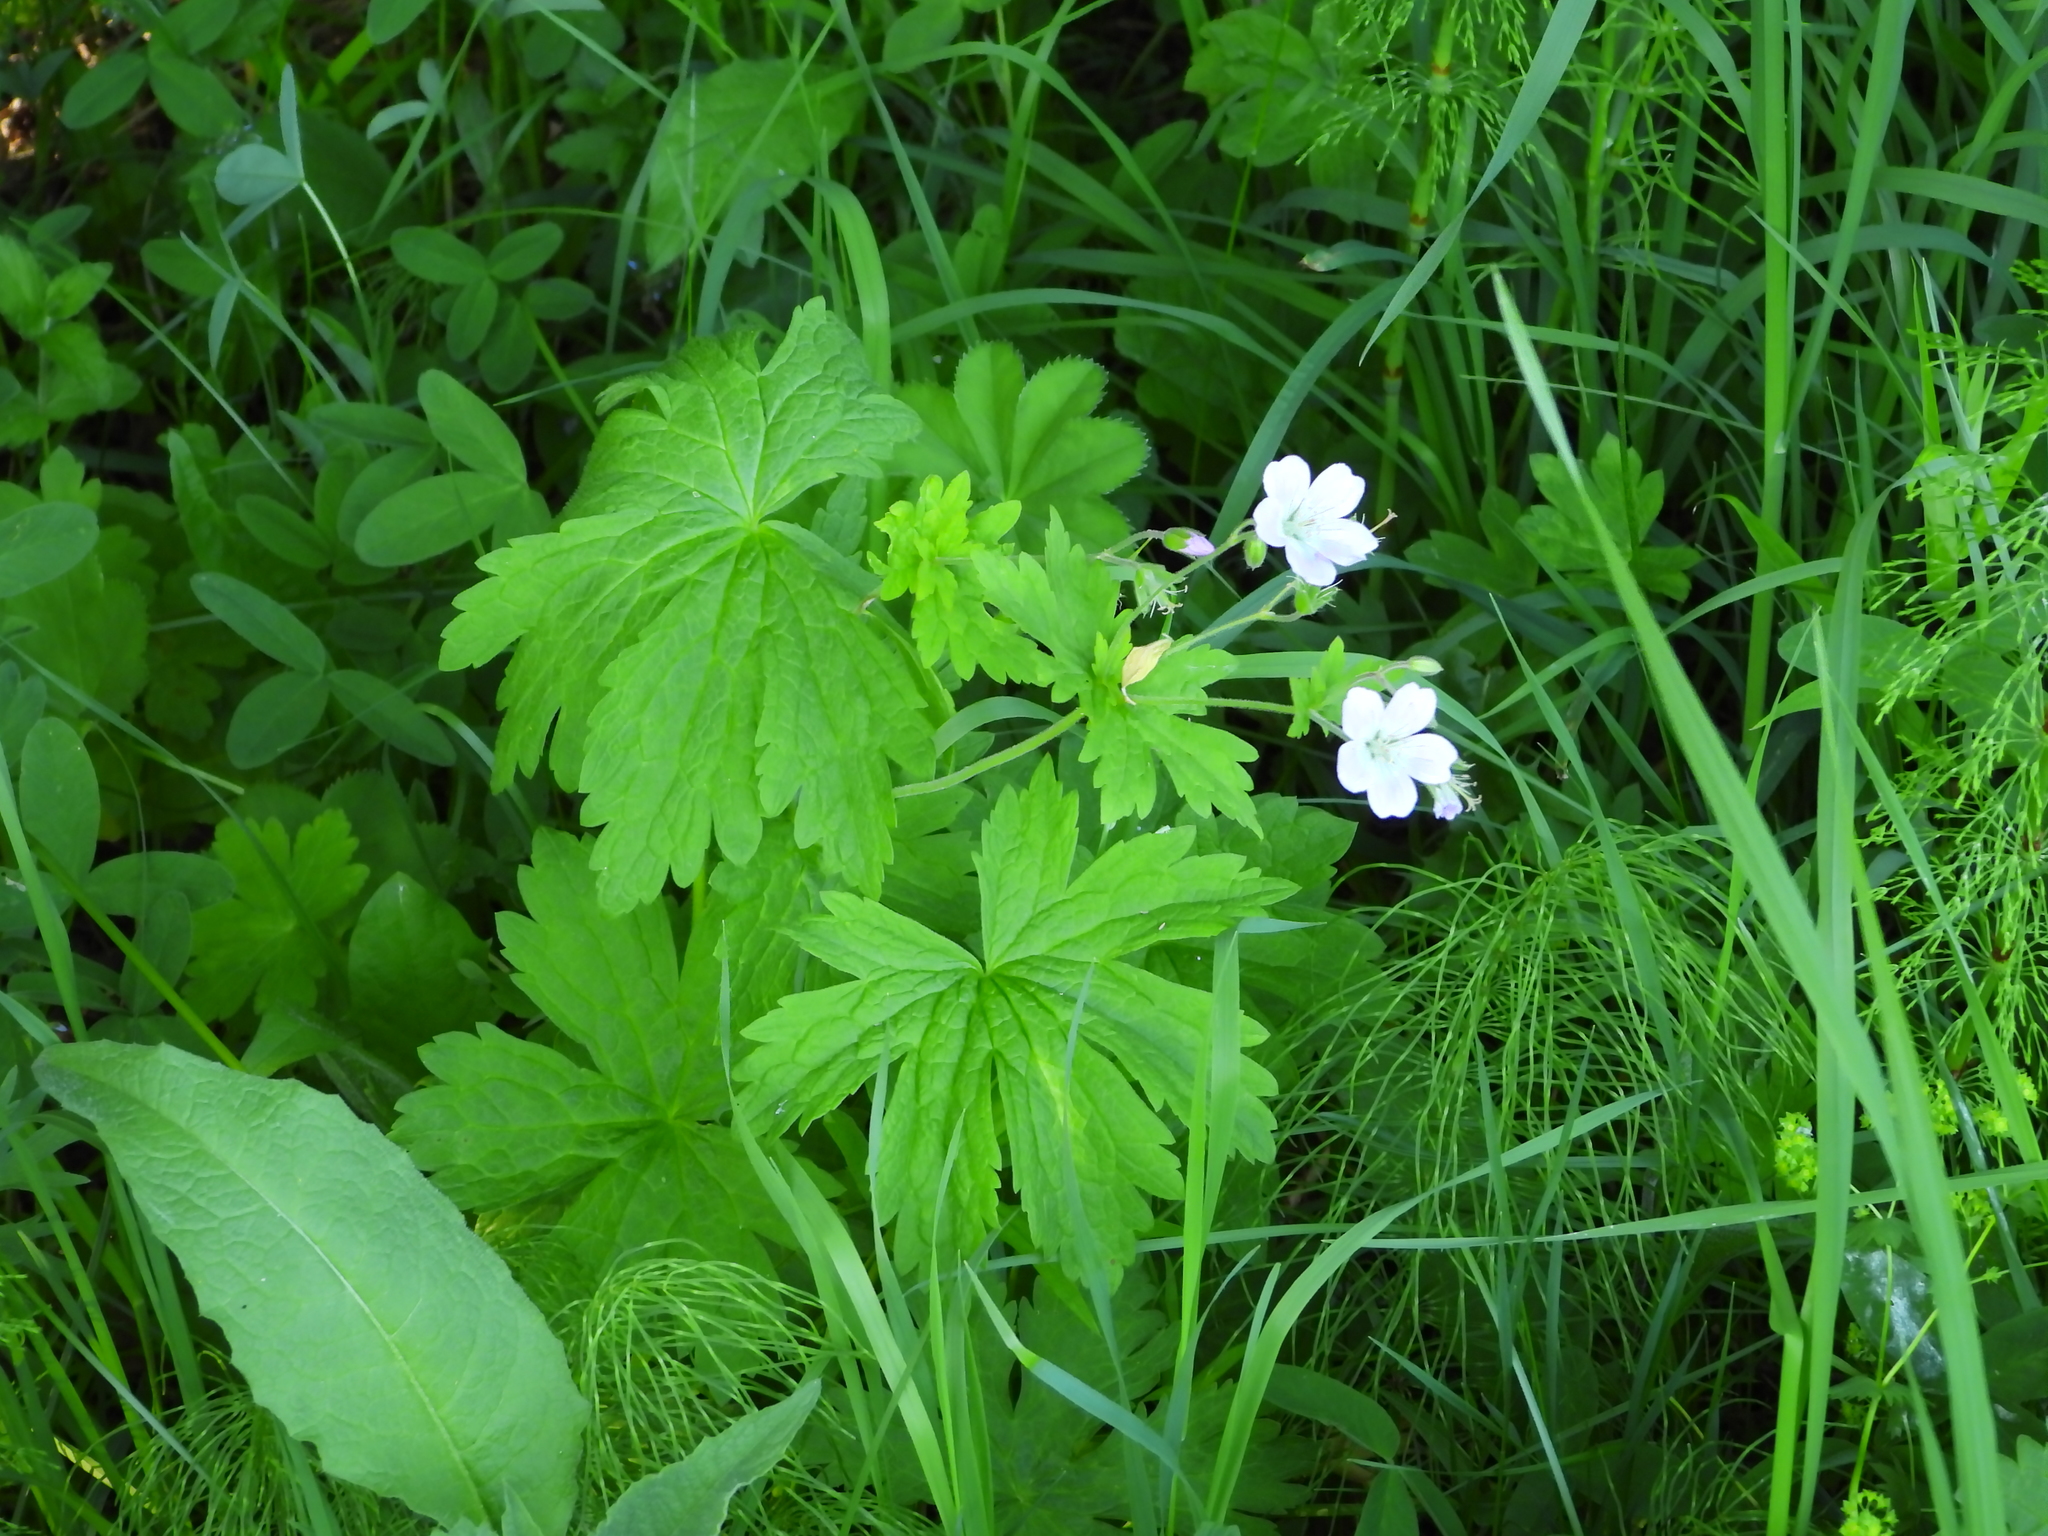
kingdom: Plantae
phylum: Tracheophyta
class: Magnoliopsida
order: Geraniales
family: Geraniaceae
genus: Geranium
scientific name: Geranium sylvaticum
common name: Wood crane's-bill
